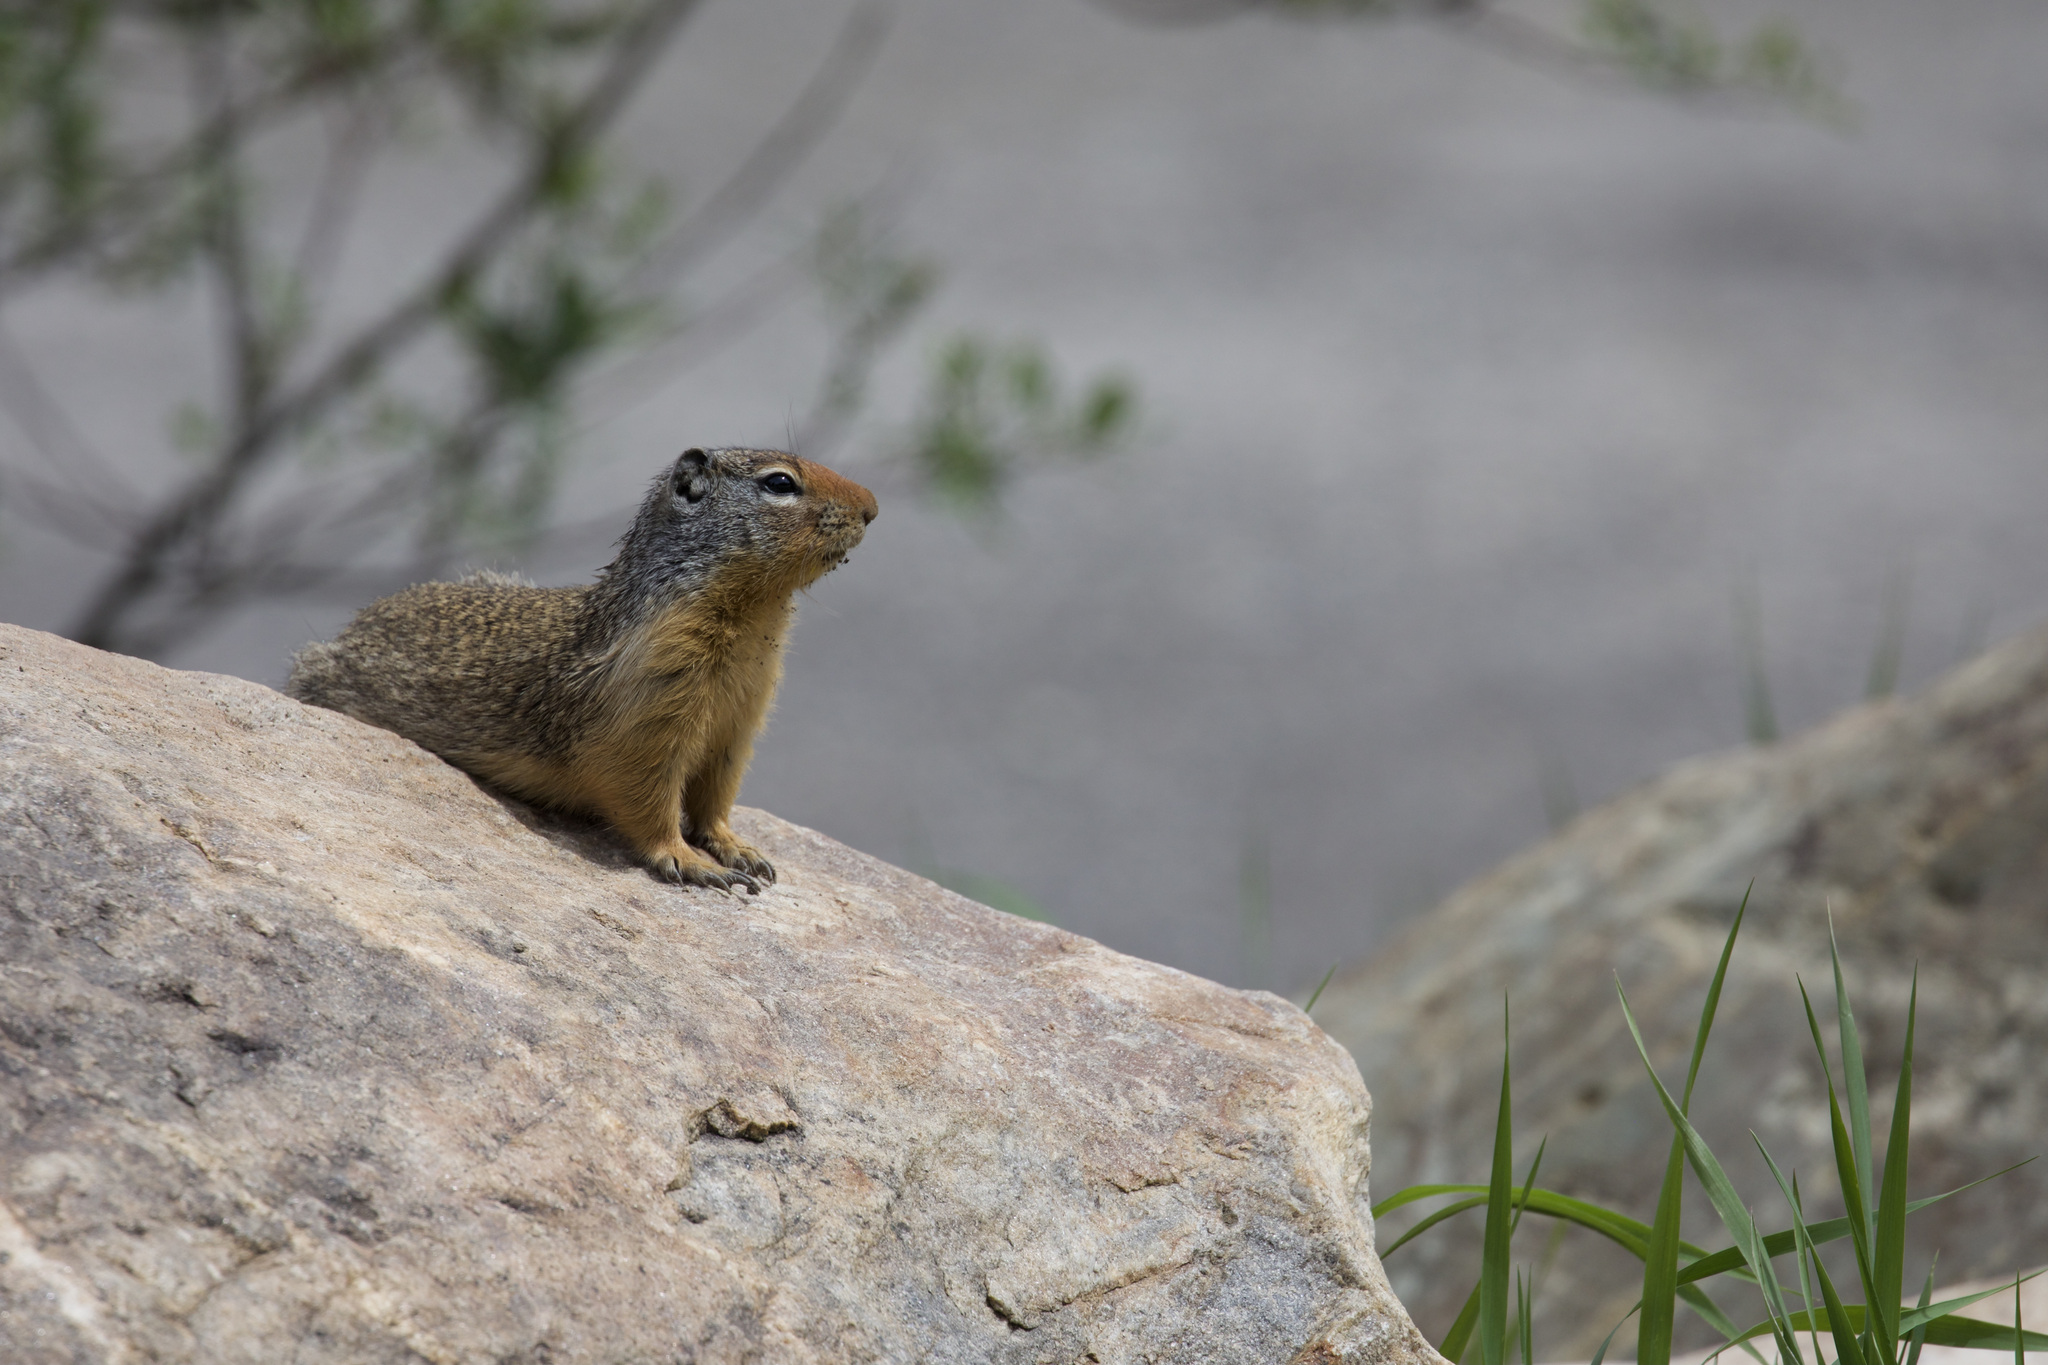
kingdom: Animalia
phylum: Chordata
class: Mammalia
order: Rodentia
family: Sciuridae
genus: Urocitellus
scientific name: Urocitellus columbianus
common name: Columbian ground squirrel
